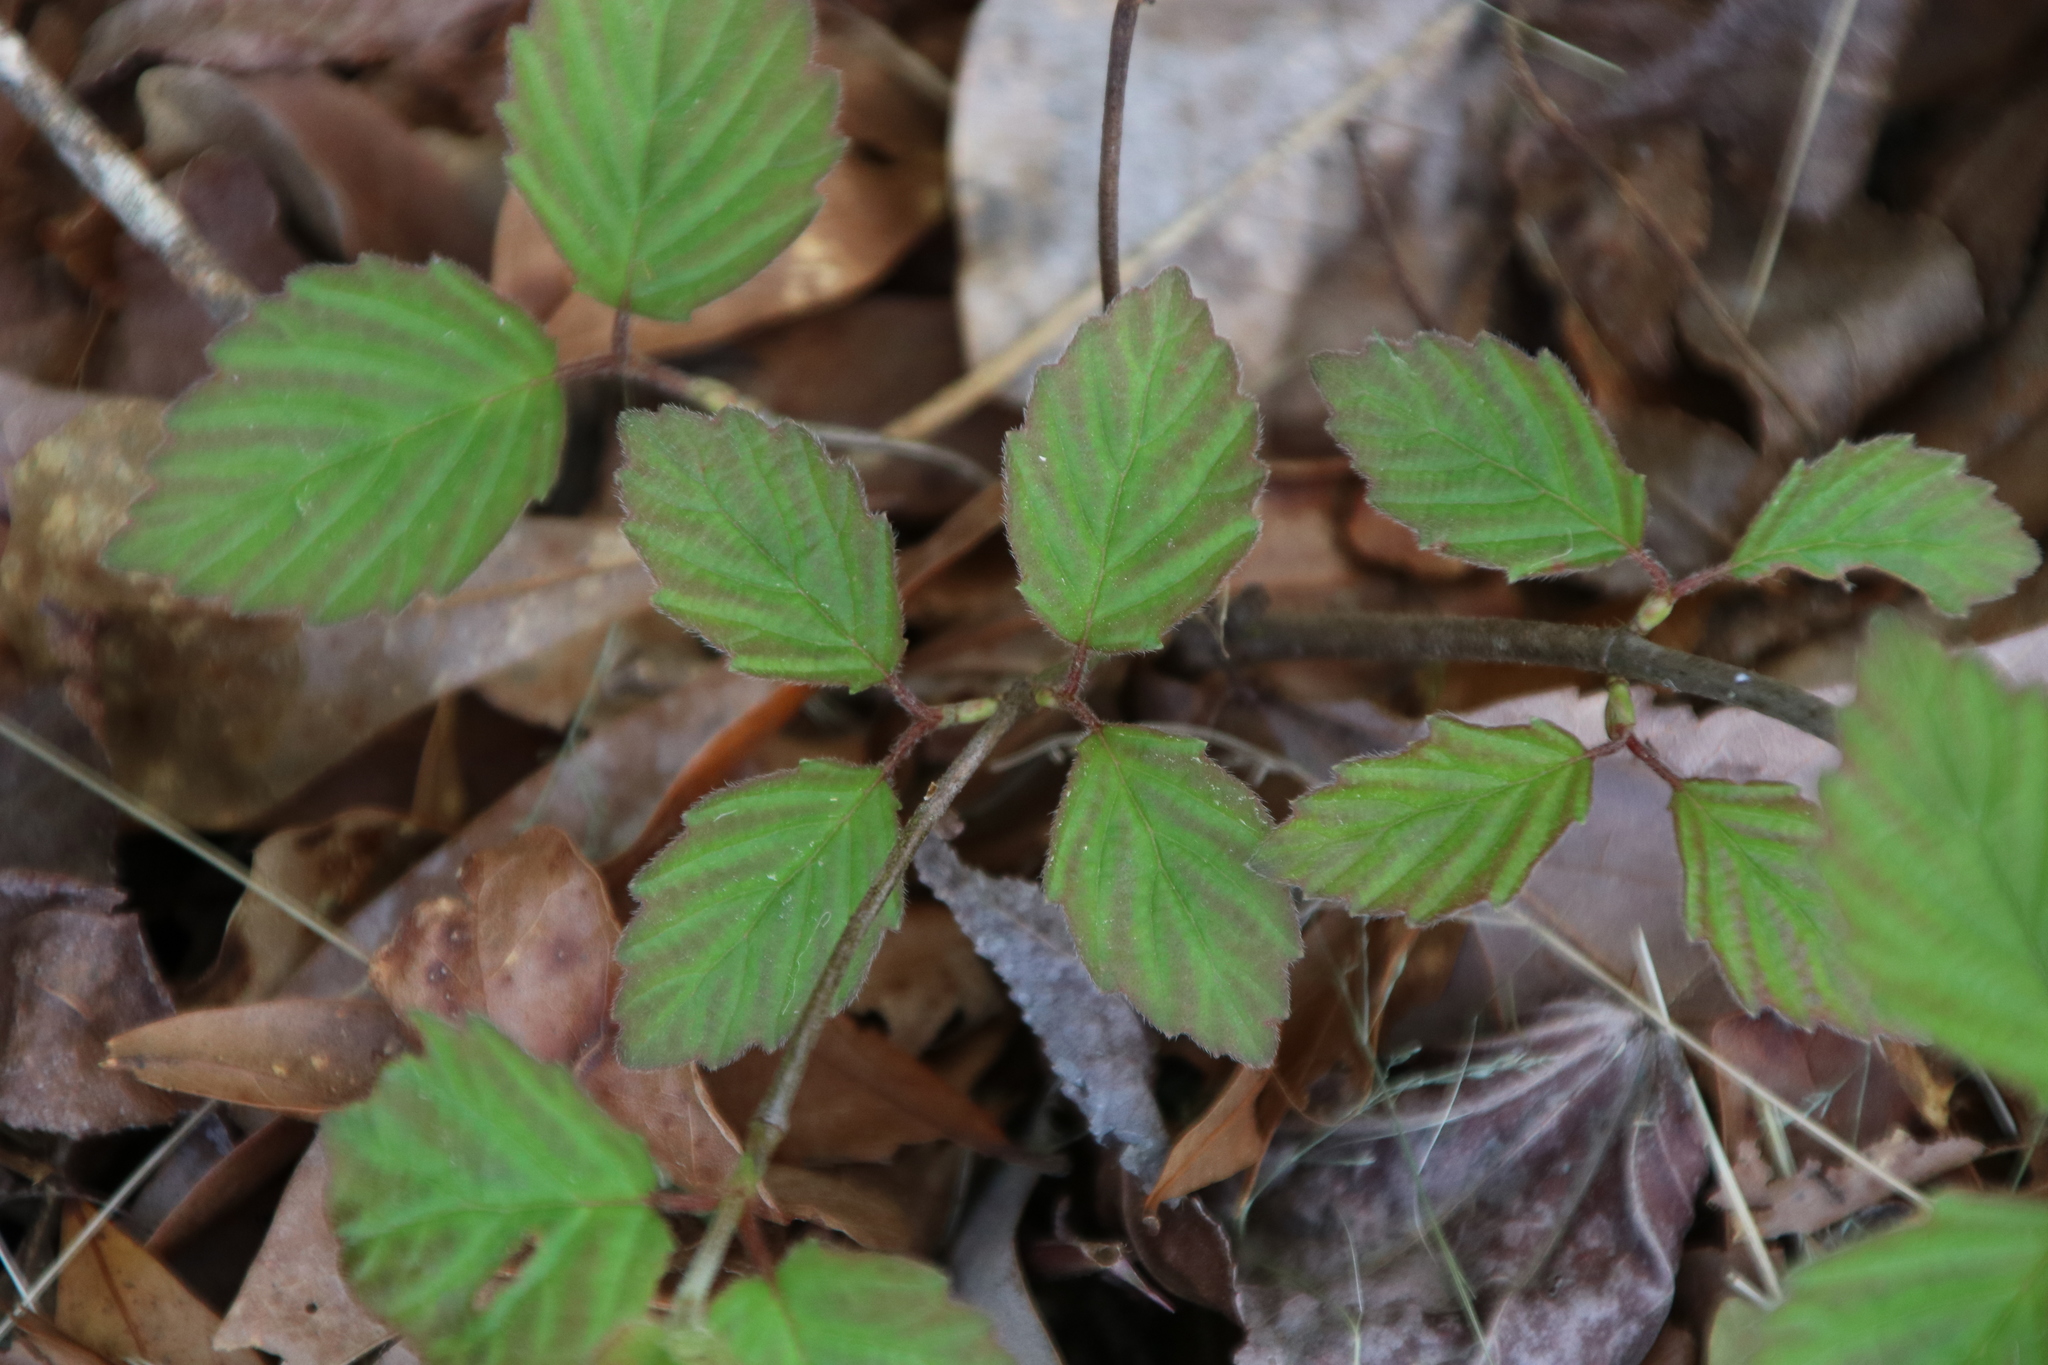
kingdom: Plantae
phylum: Tracheophyta
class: Magnoliopsida
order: Dipsacales
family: Viburnaceae
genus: Viburnum
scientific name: Viburnum scabrellum
